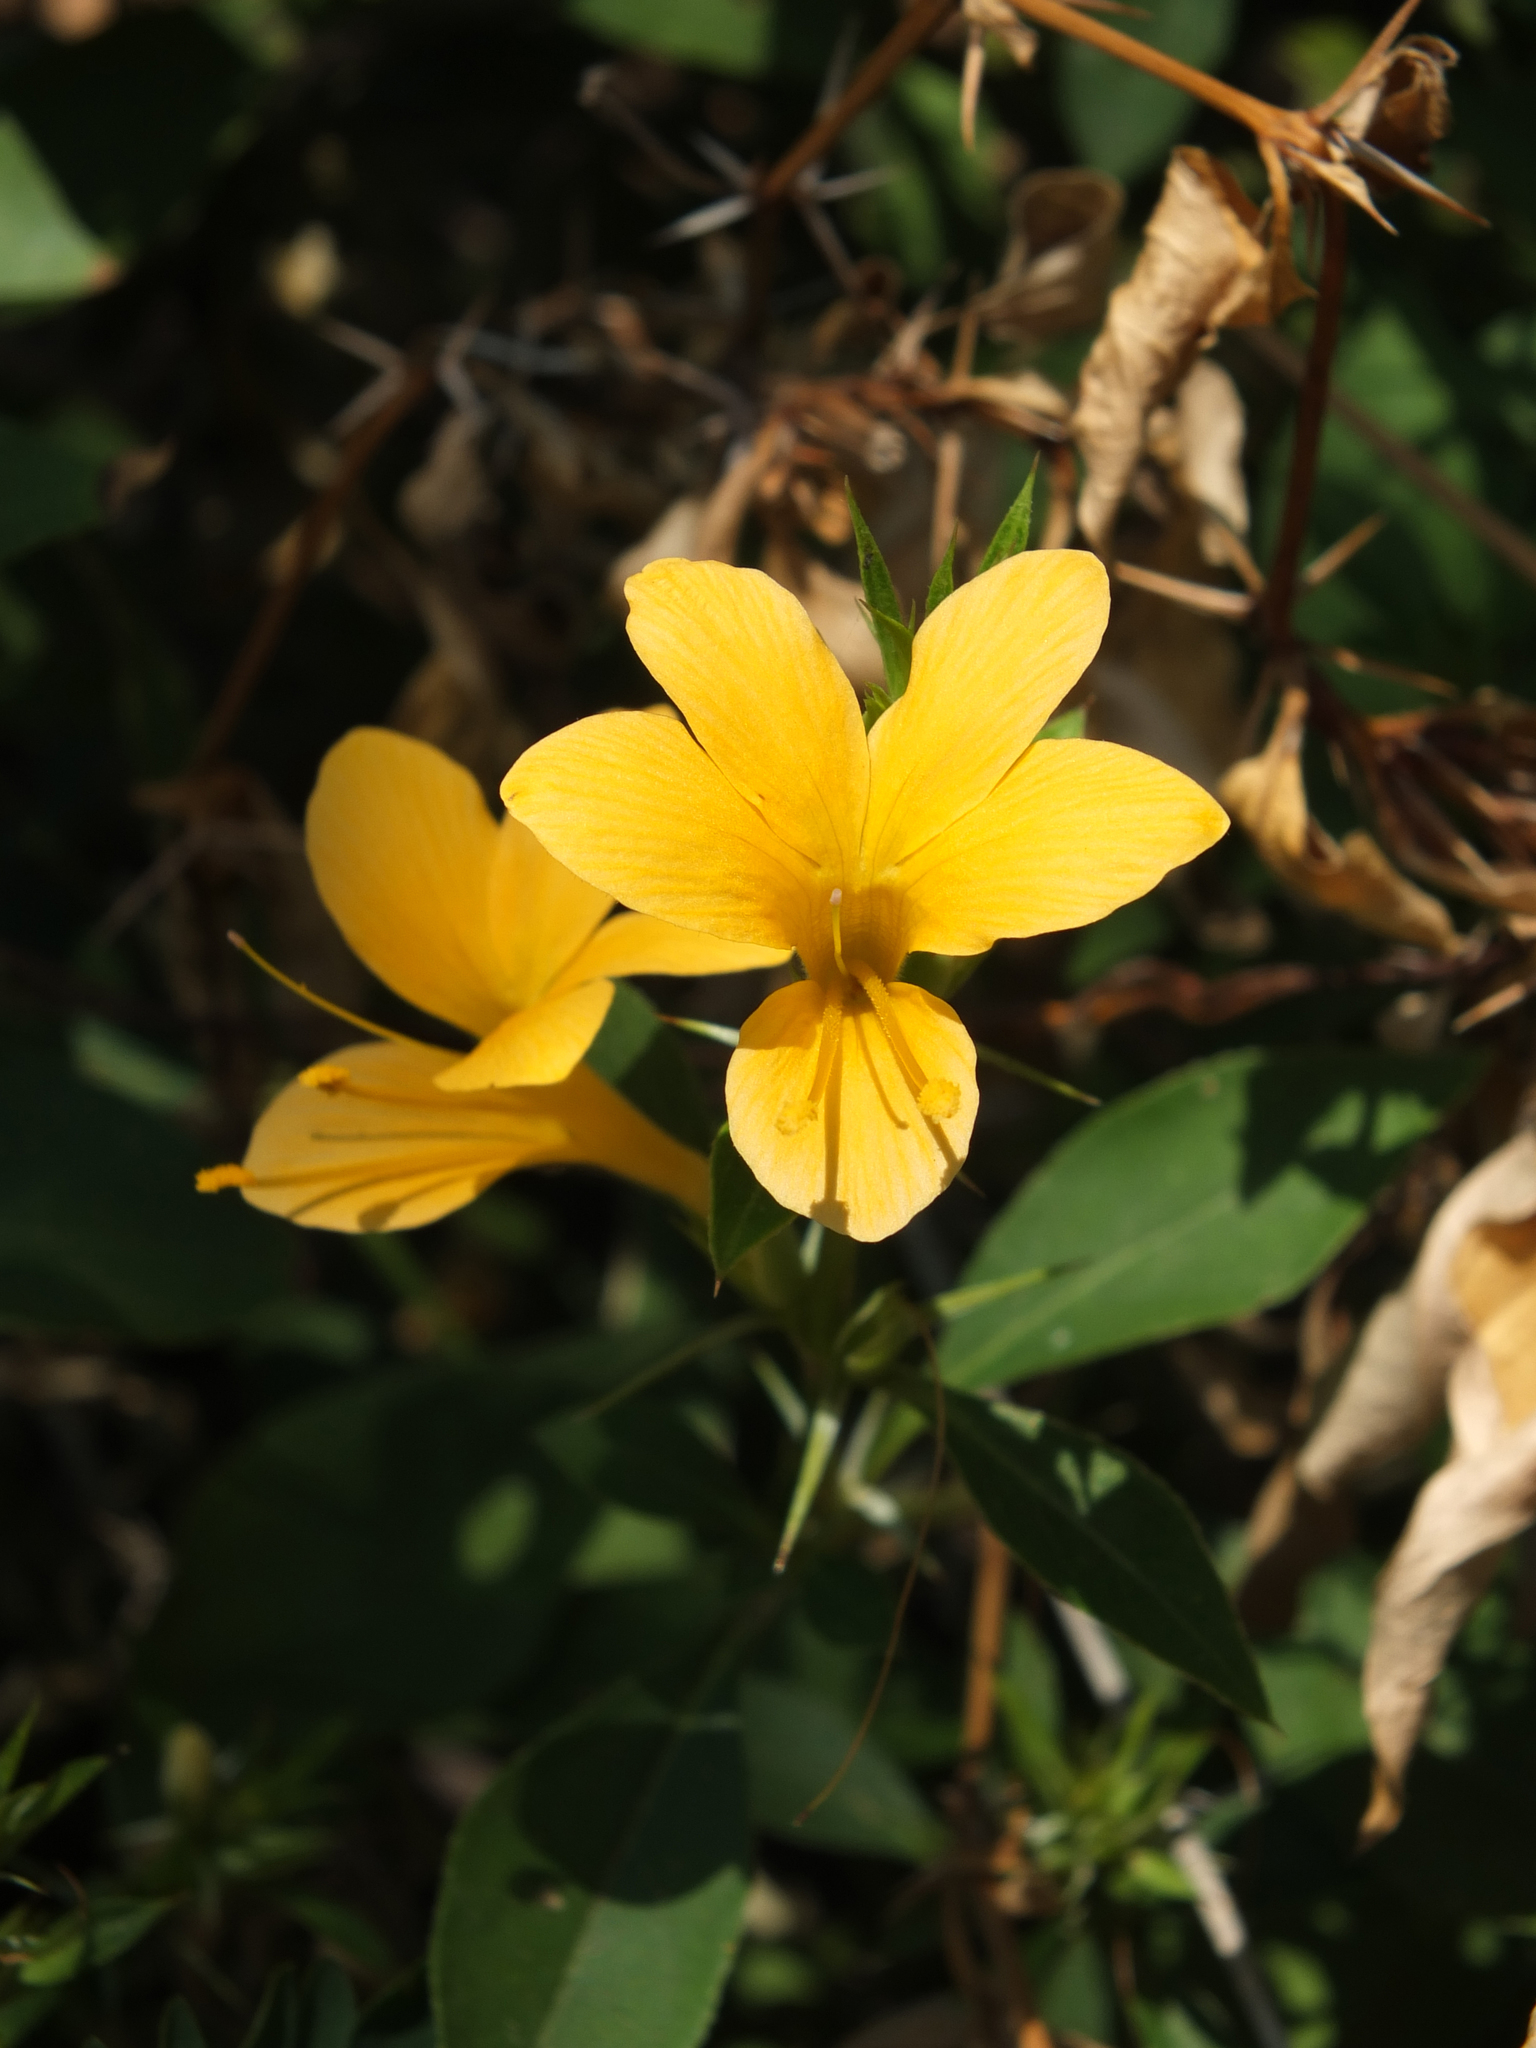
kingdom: Plantae
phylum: Tracheophyta
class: Magnoliopsida
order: Lamiales
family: Acanthaceae
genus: Barleria
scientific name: Barleria prionitis
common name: Barleria
